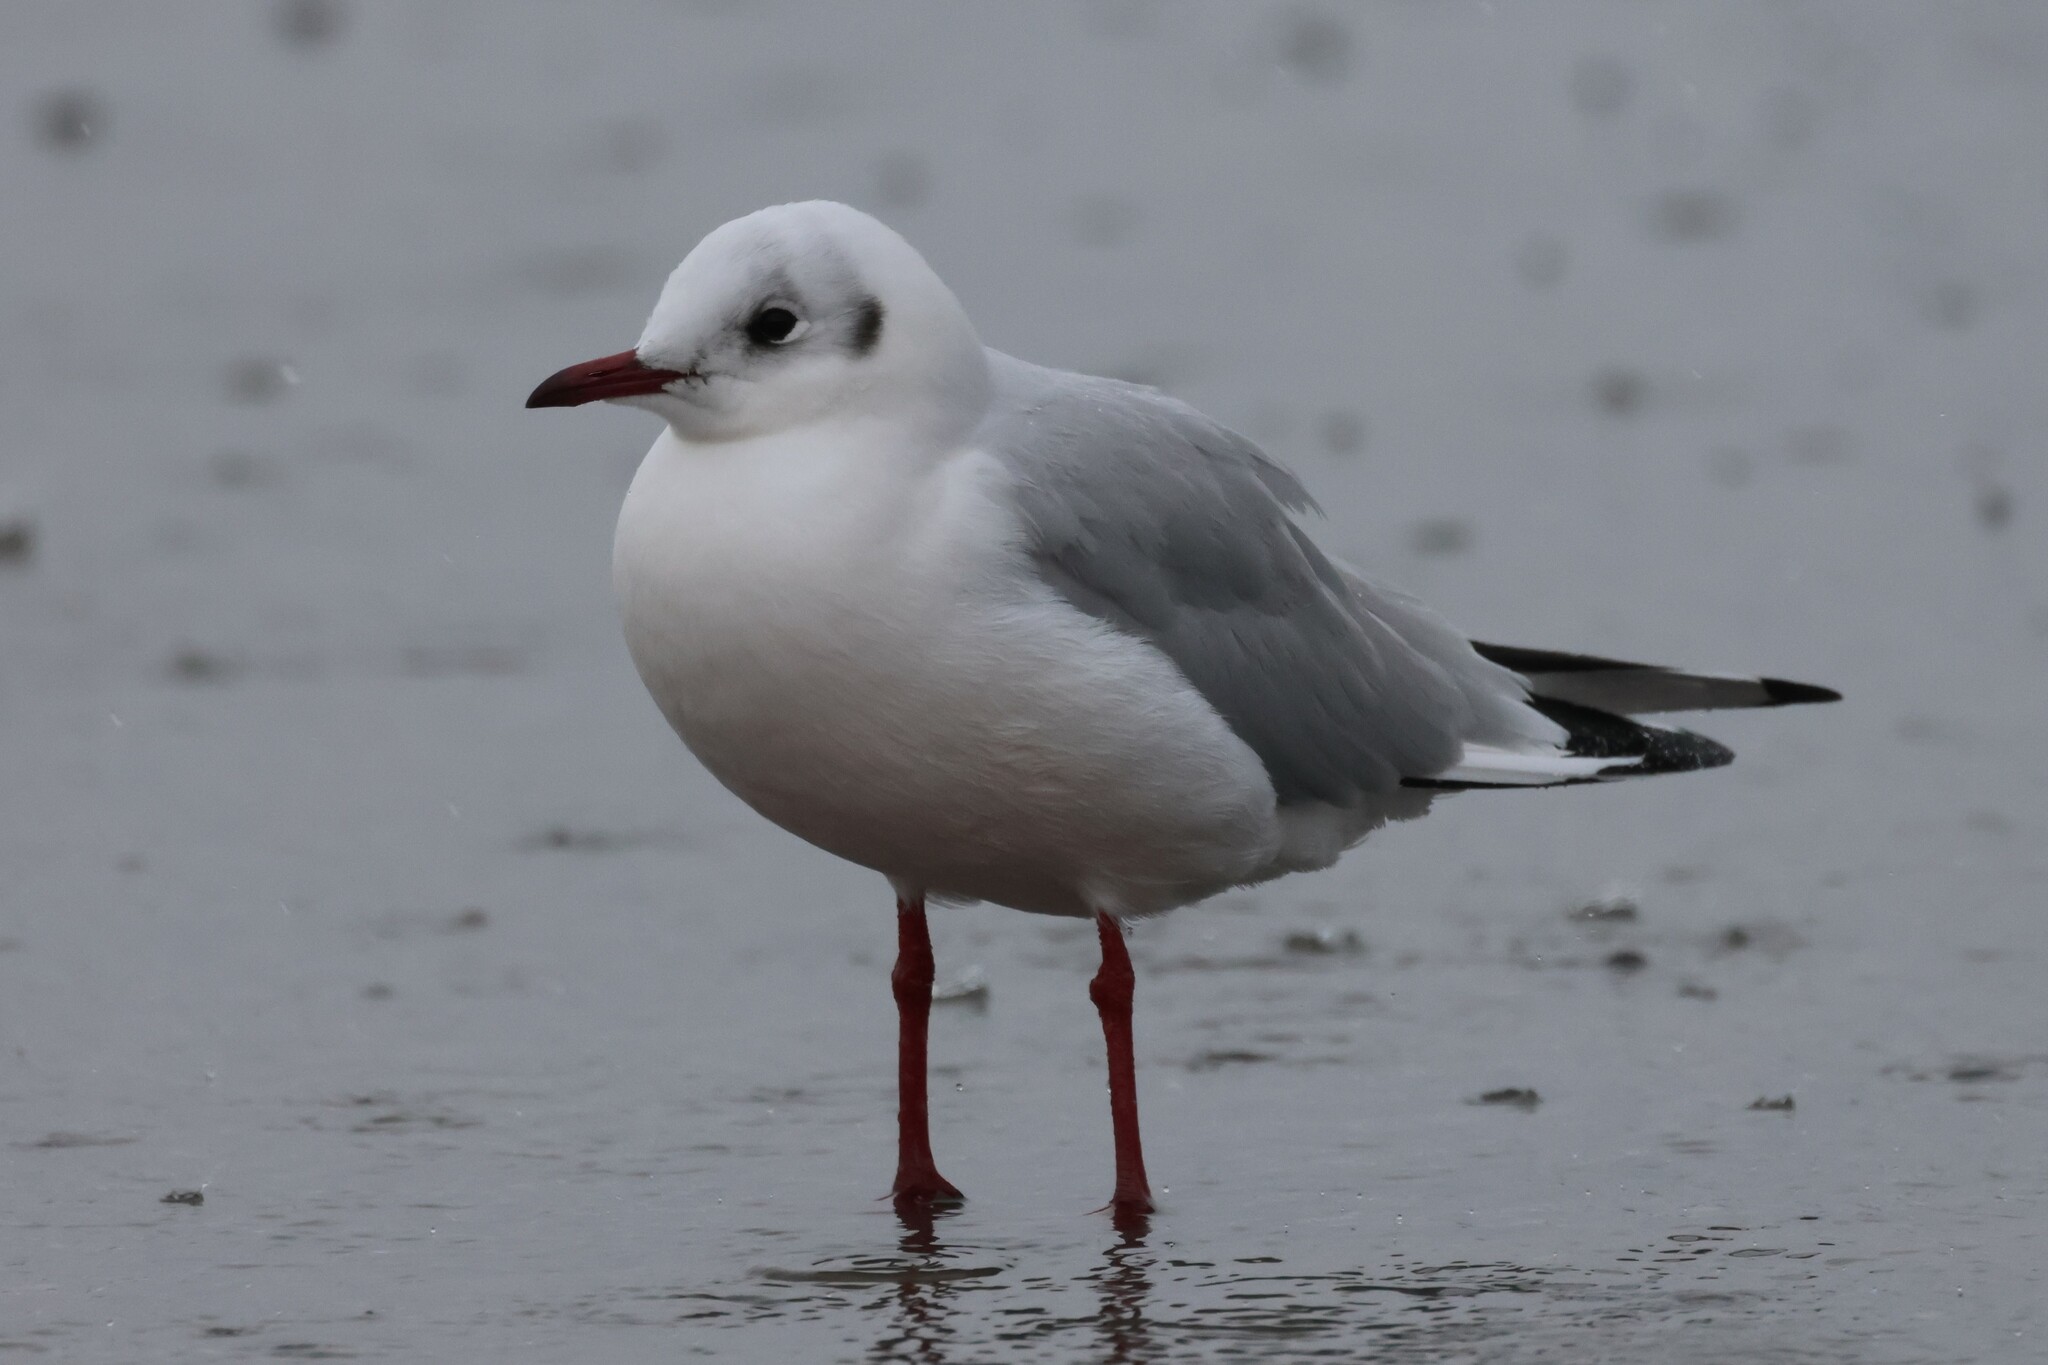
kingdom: Animalia
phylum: Chordata
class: Aves
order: Charadriiformes
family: Laridae
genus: Chroicocephalus
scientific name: Chroicocephalus ridibundus
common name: Black-headed gull
